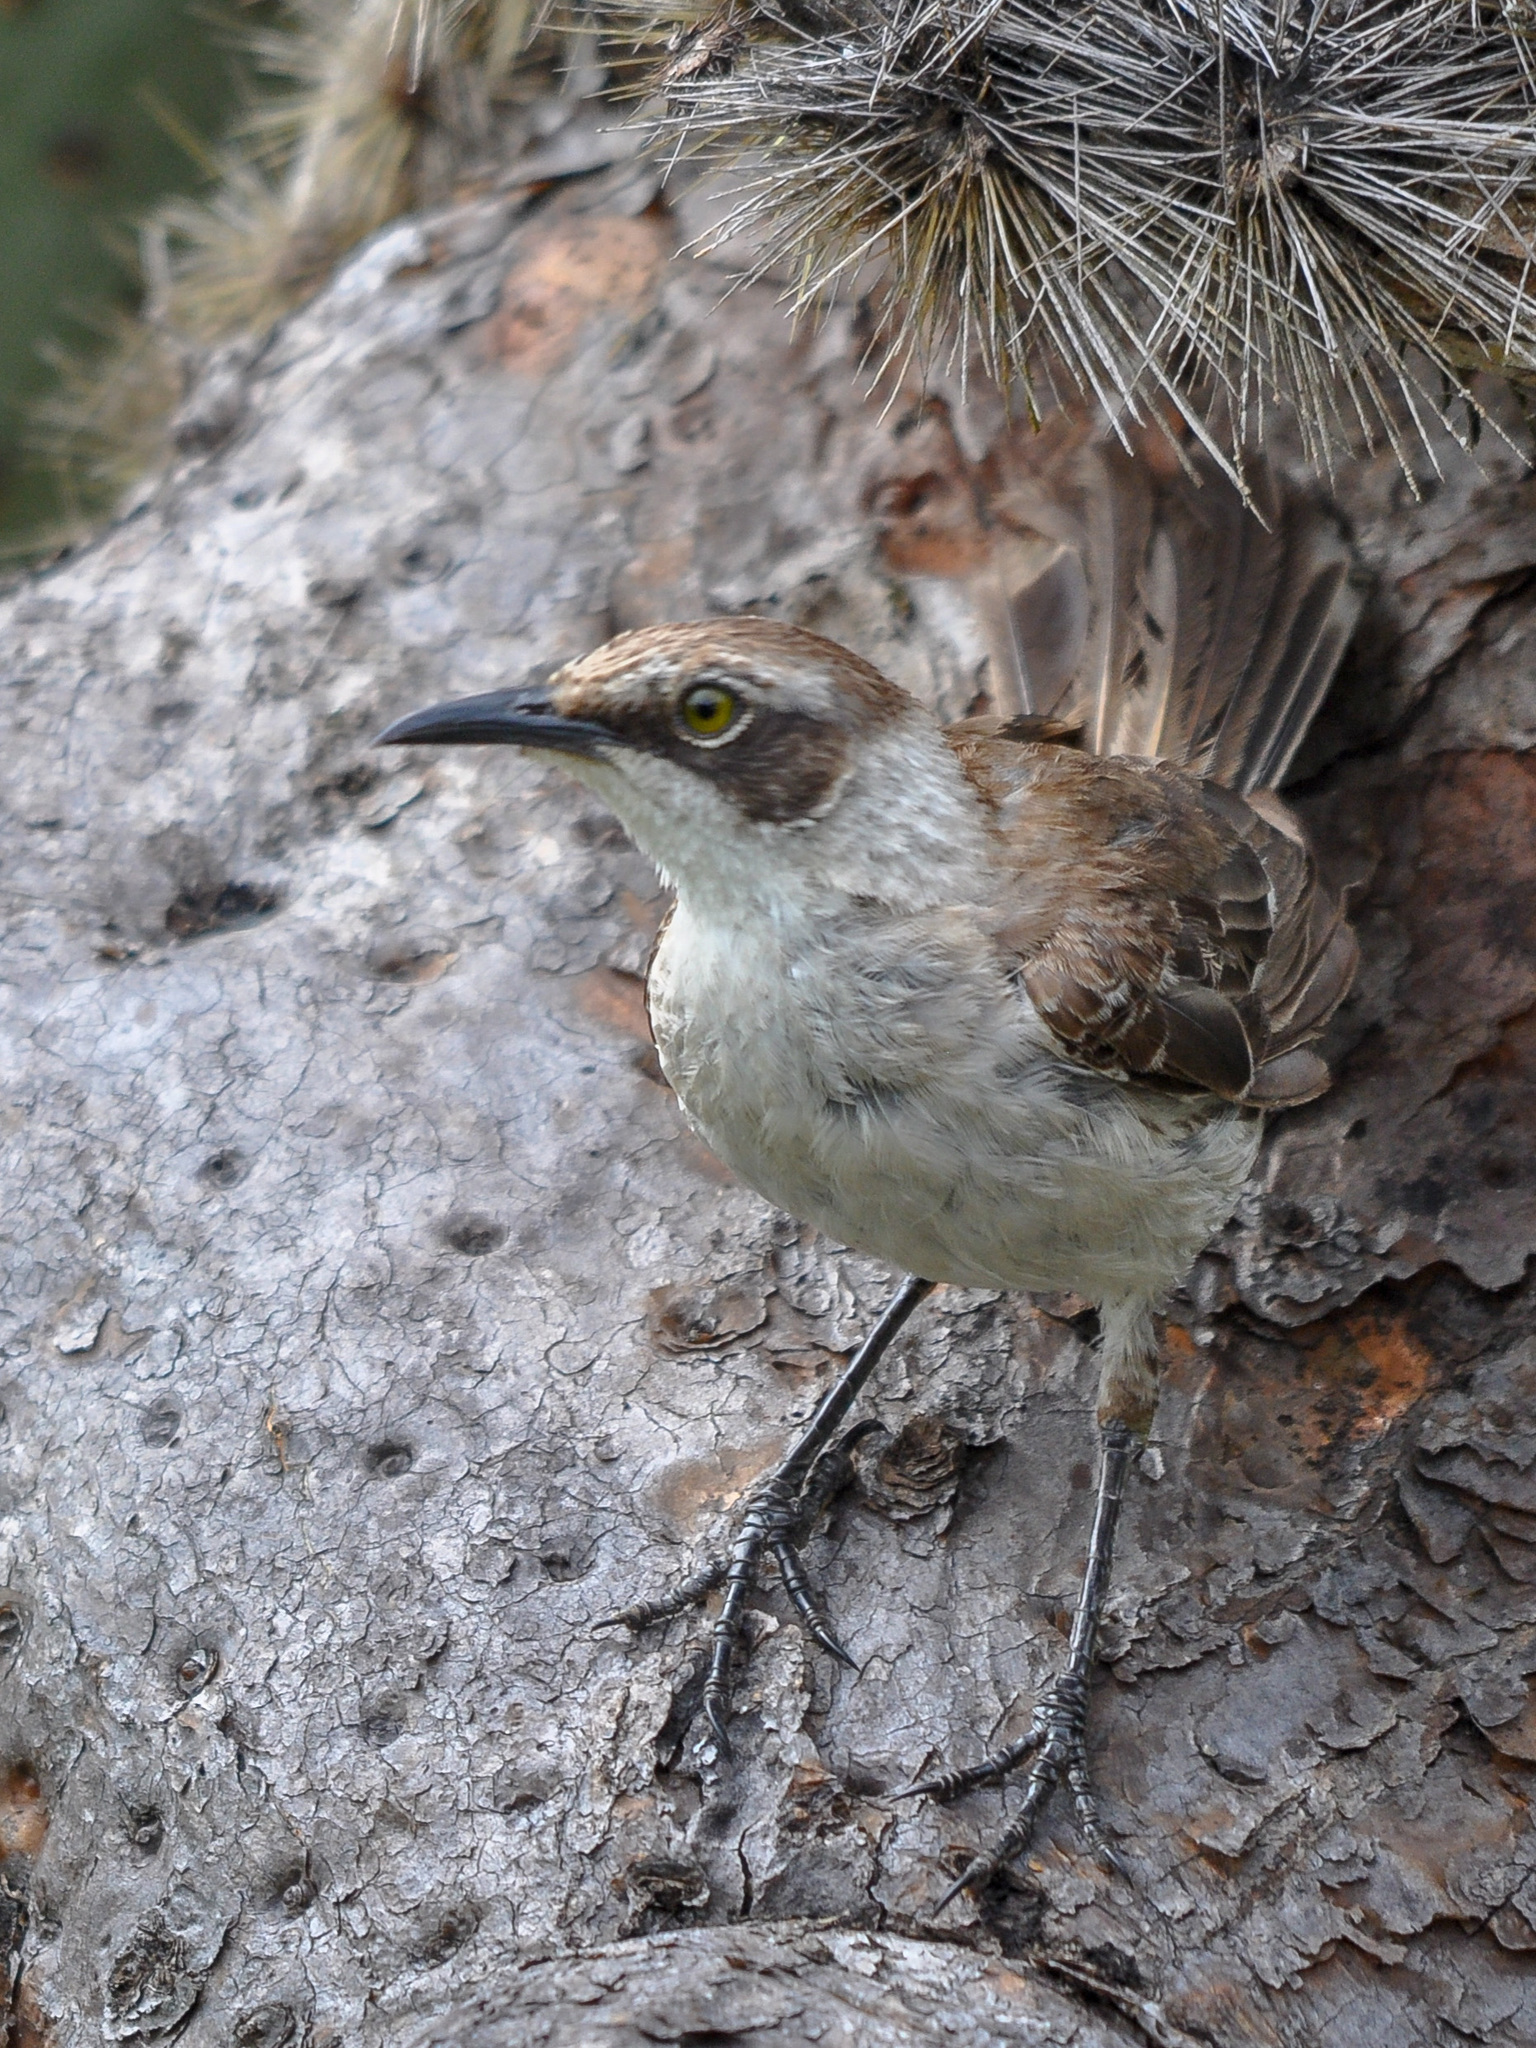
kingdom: Animalia
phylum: Chordata
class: Aves
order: Passeriformes
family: Mimidae
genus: Mimus
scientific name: Mimus parvulus
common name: Galapagos mockingbird
